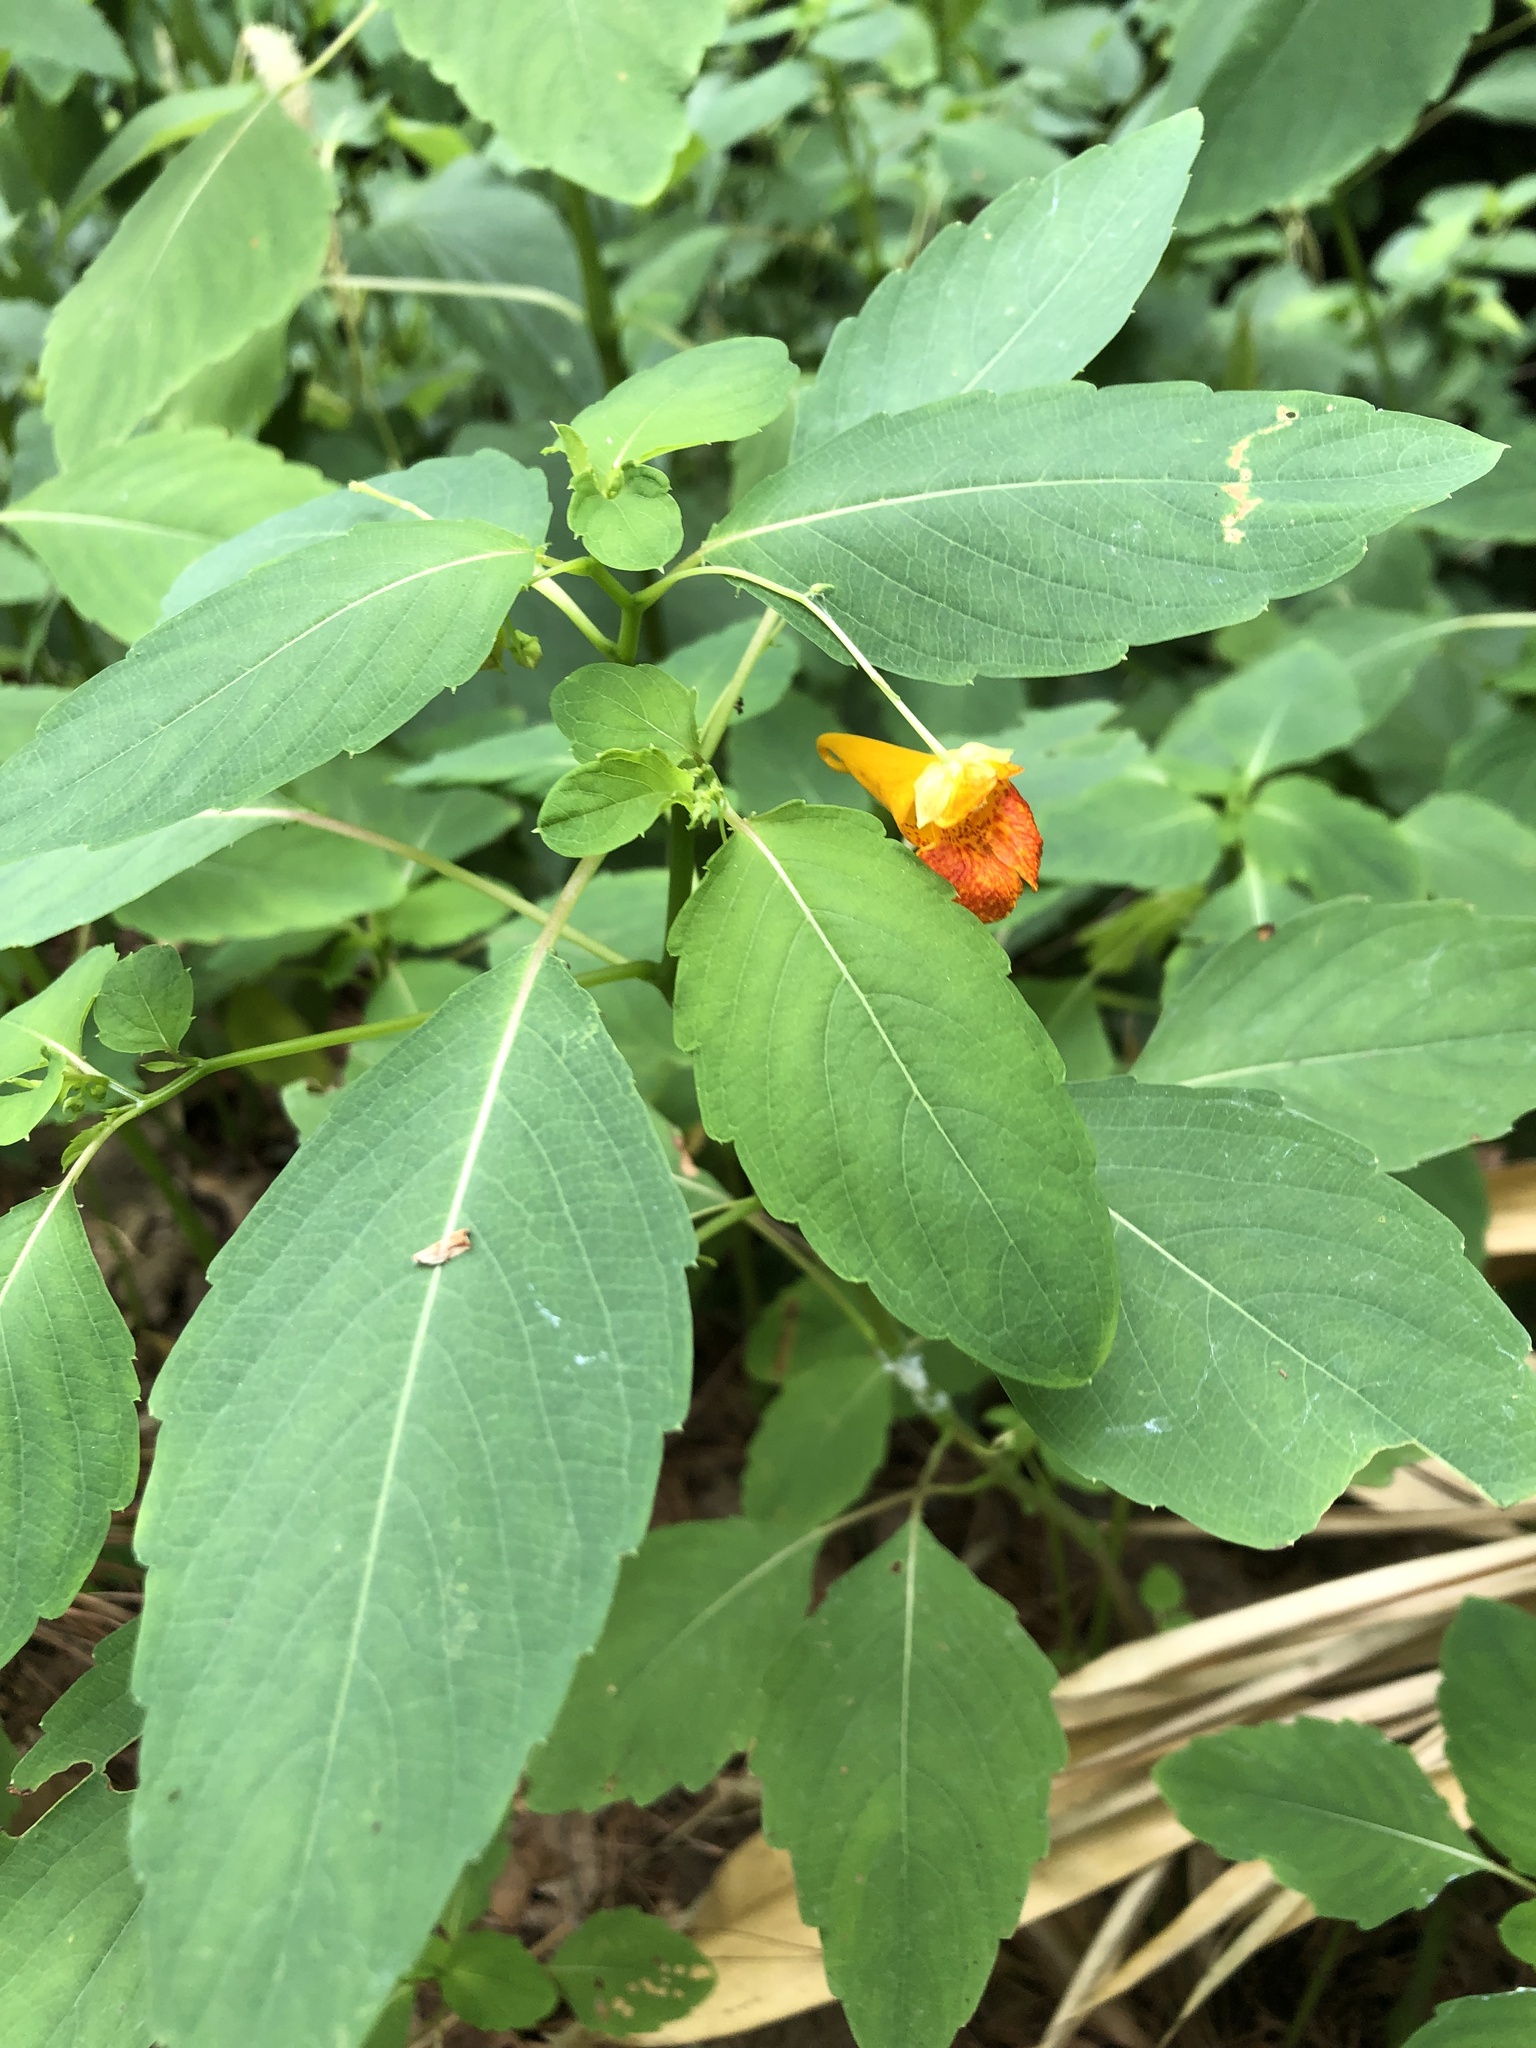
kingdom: Plantae
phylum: Tracheophyta
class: Magnoliopsida
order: Ericales
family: Balsaminaceae
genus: Impatiens
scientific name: Impatiens capensis
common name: Orange balsam
